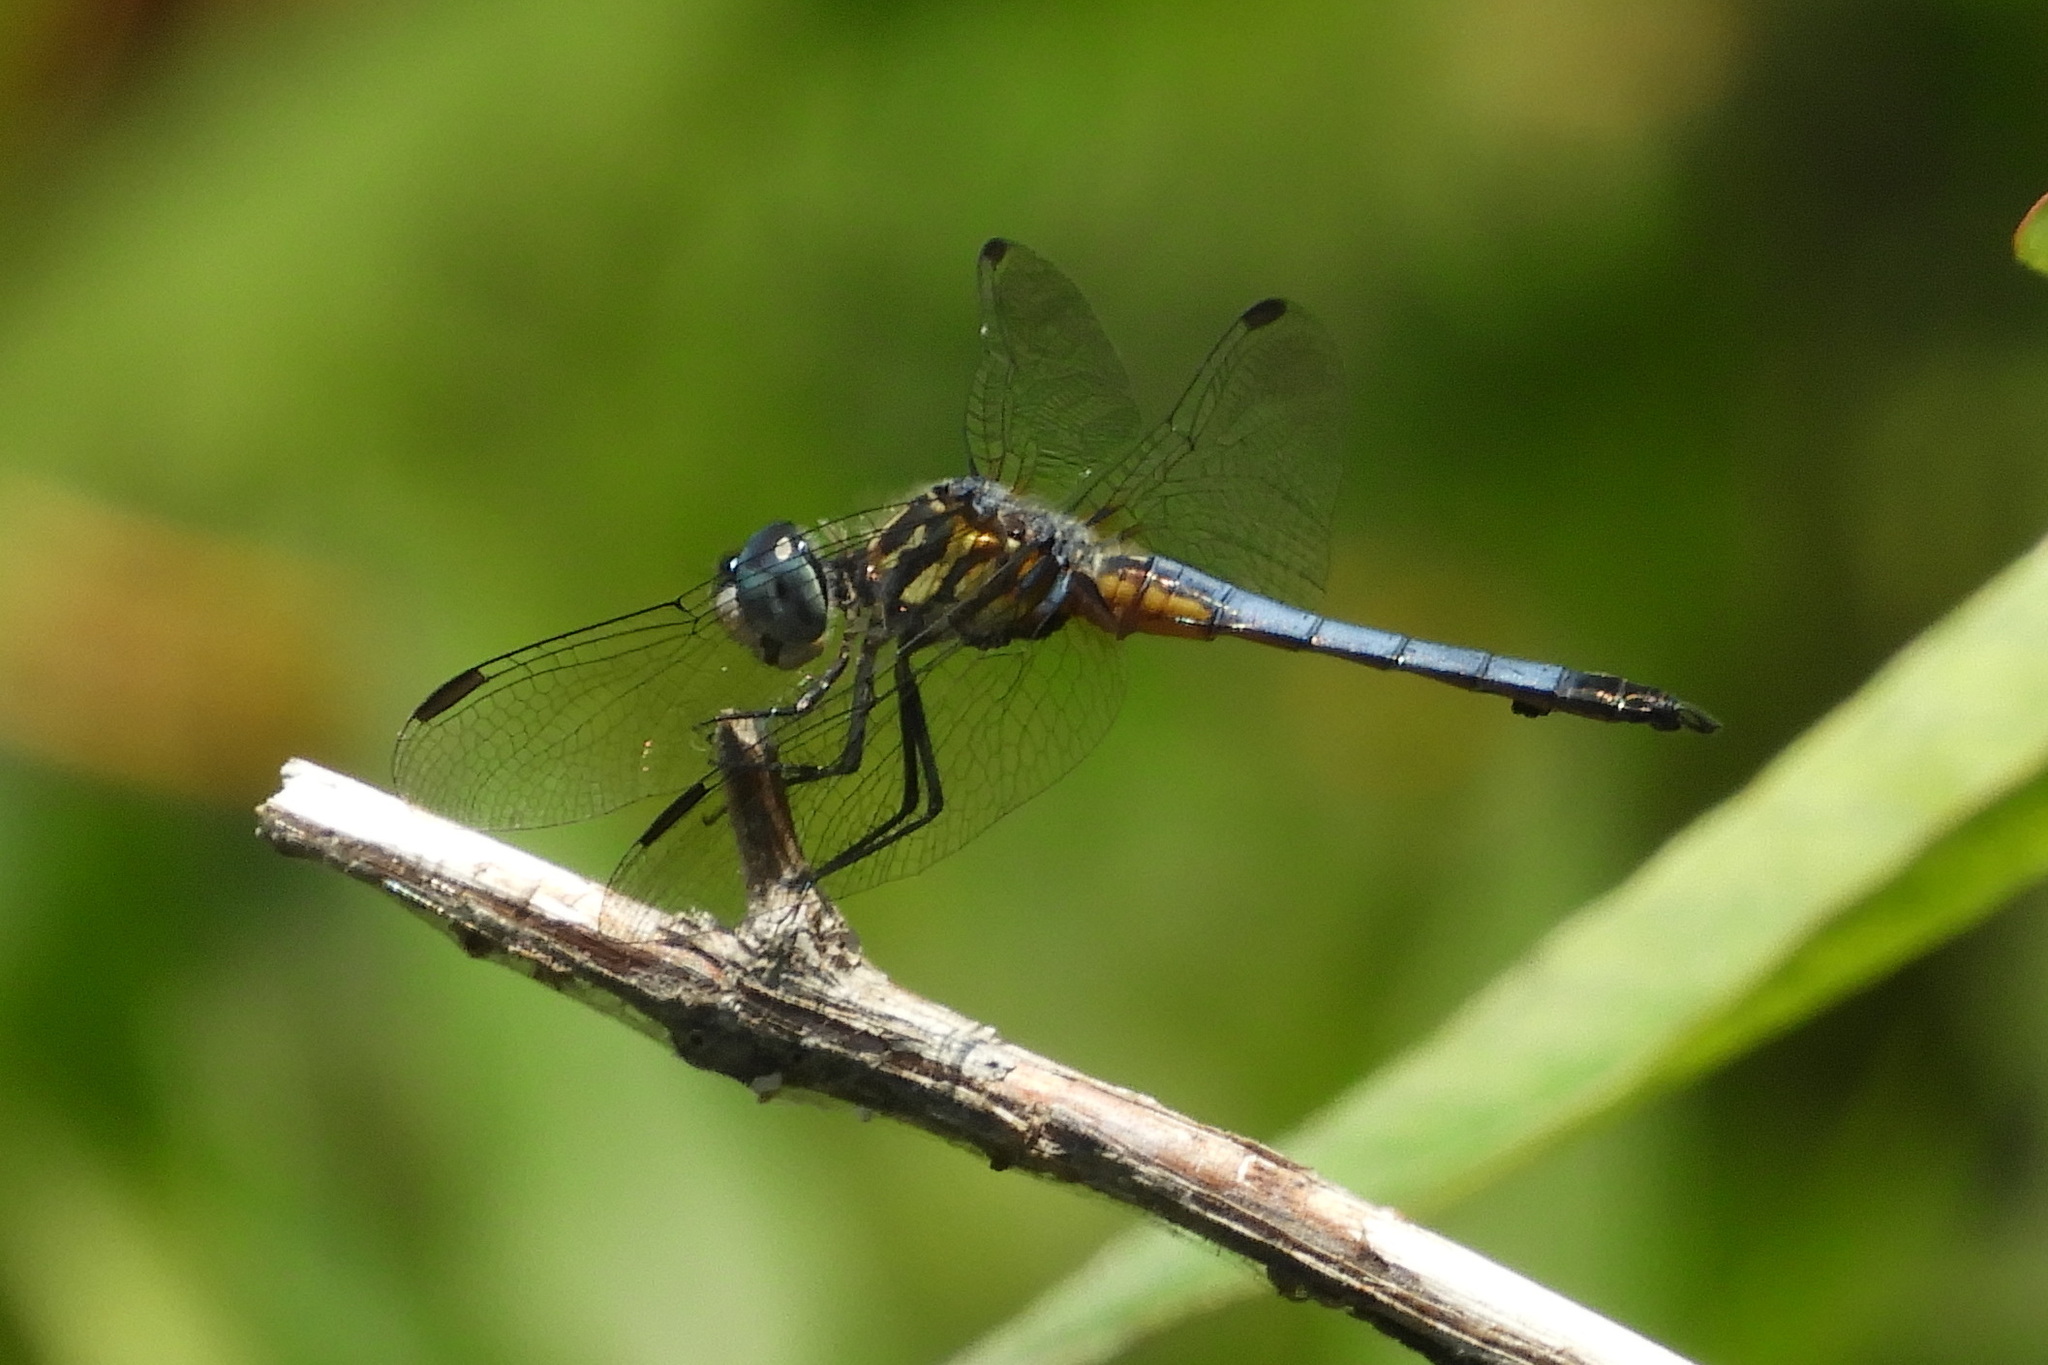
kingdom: Animalia
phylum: Arthropoda
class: Insecta
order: Odonata
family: Libellulidae
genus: Pachydiplax
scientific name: Pachydiplax longipennis
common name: Blue dasher
